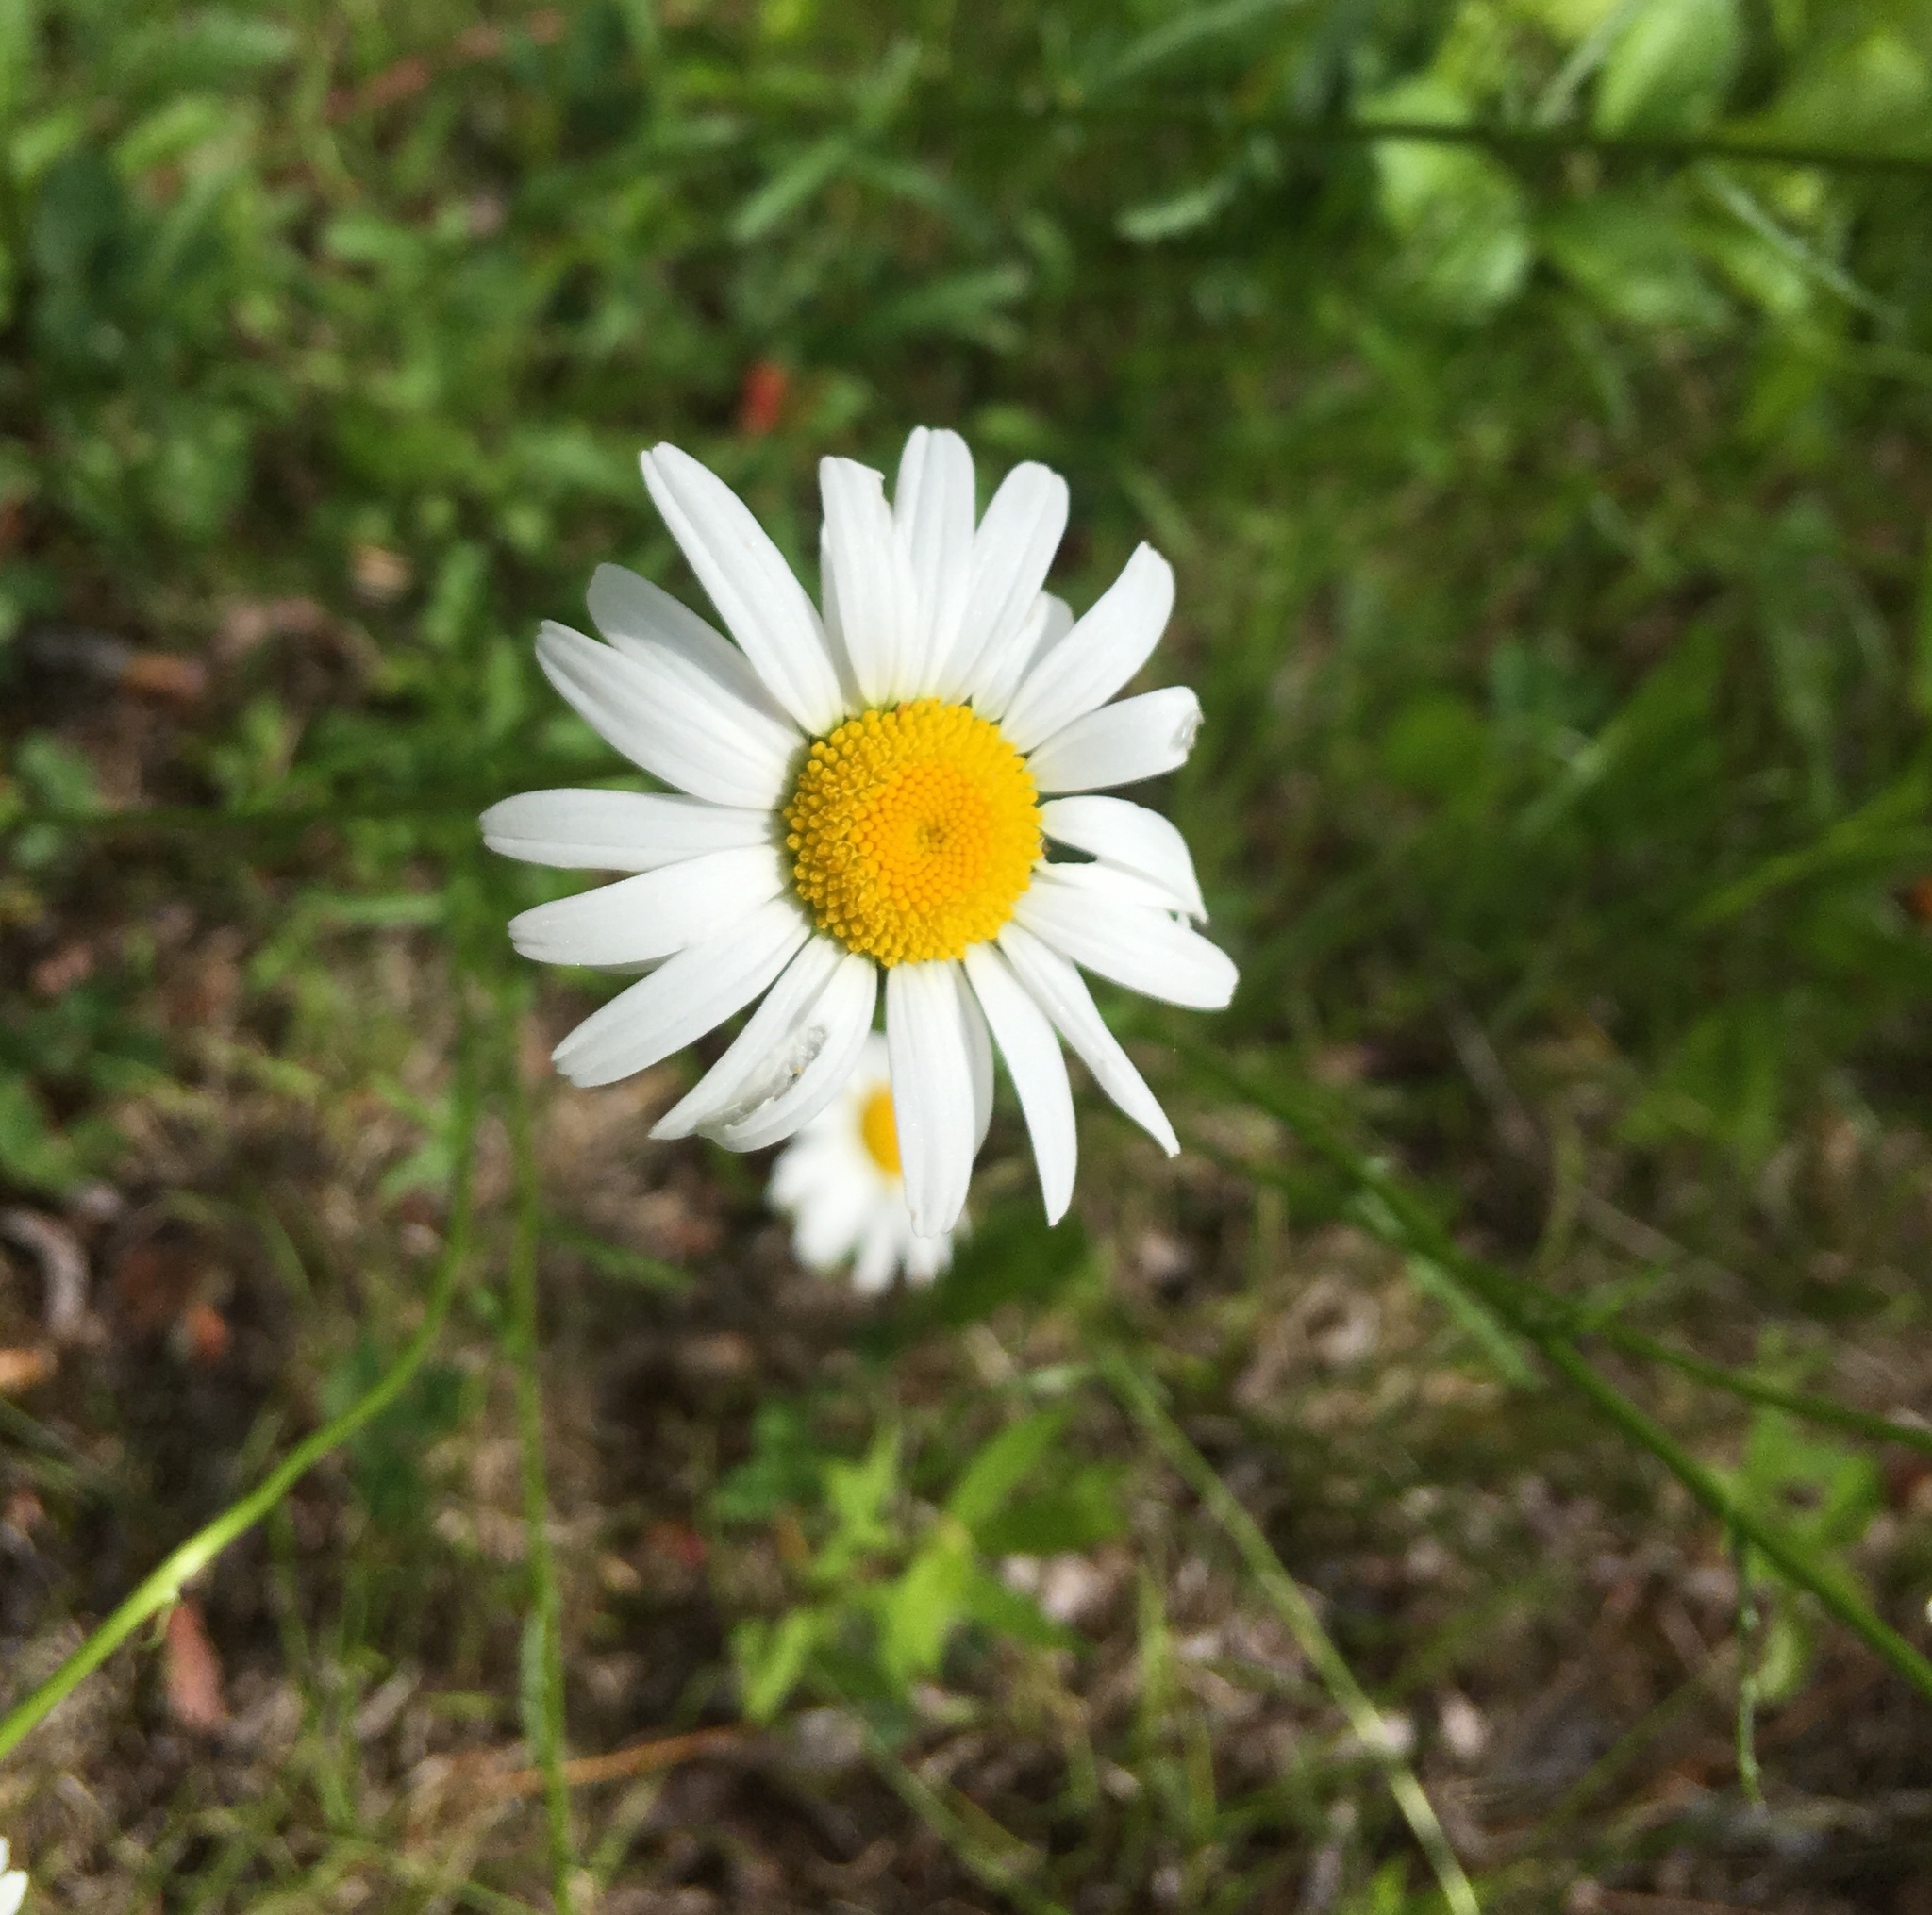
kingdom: Plantae
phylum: Tracheophyta
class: Magnoliopsida
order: Asterales
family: Asteraceae
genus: Leucanthemum
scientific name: Leucanthemum vulgare
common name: Oxeye daisy
